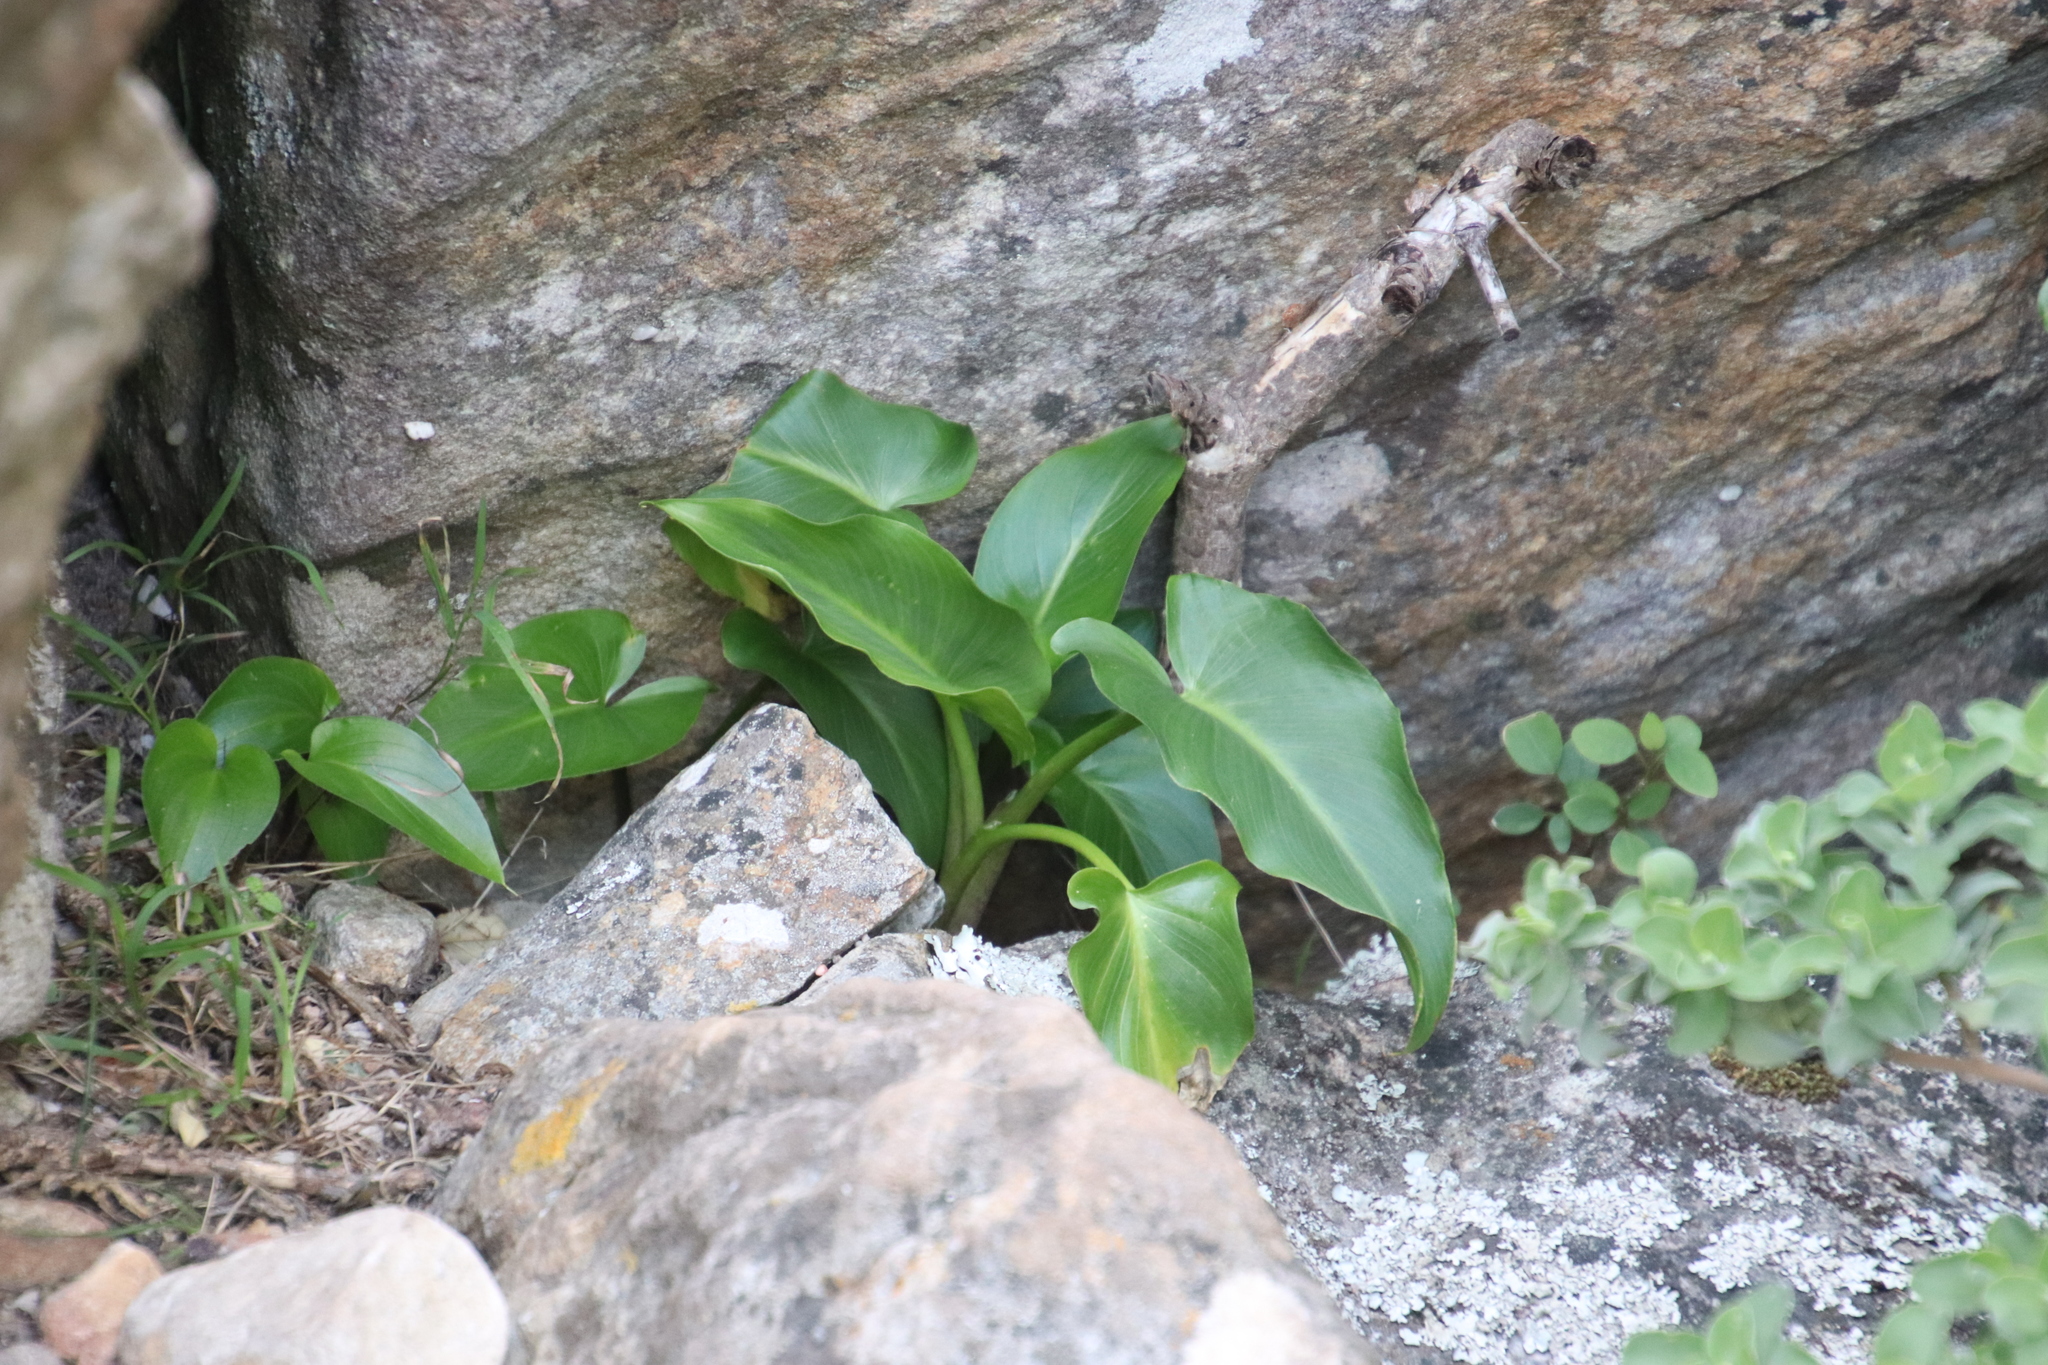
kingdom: Plantae
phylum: Tracheophyta
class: Liliopsida
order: Alismatales
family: Araceae
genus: Zantedeschia
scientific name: Zantedeschia aethiopica
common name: Altar-lily
